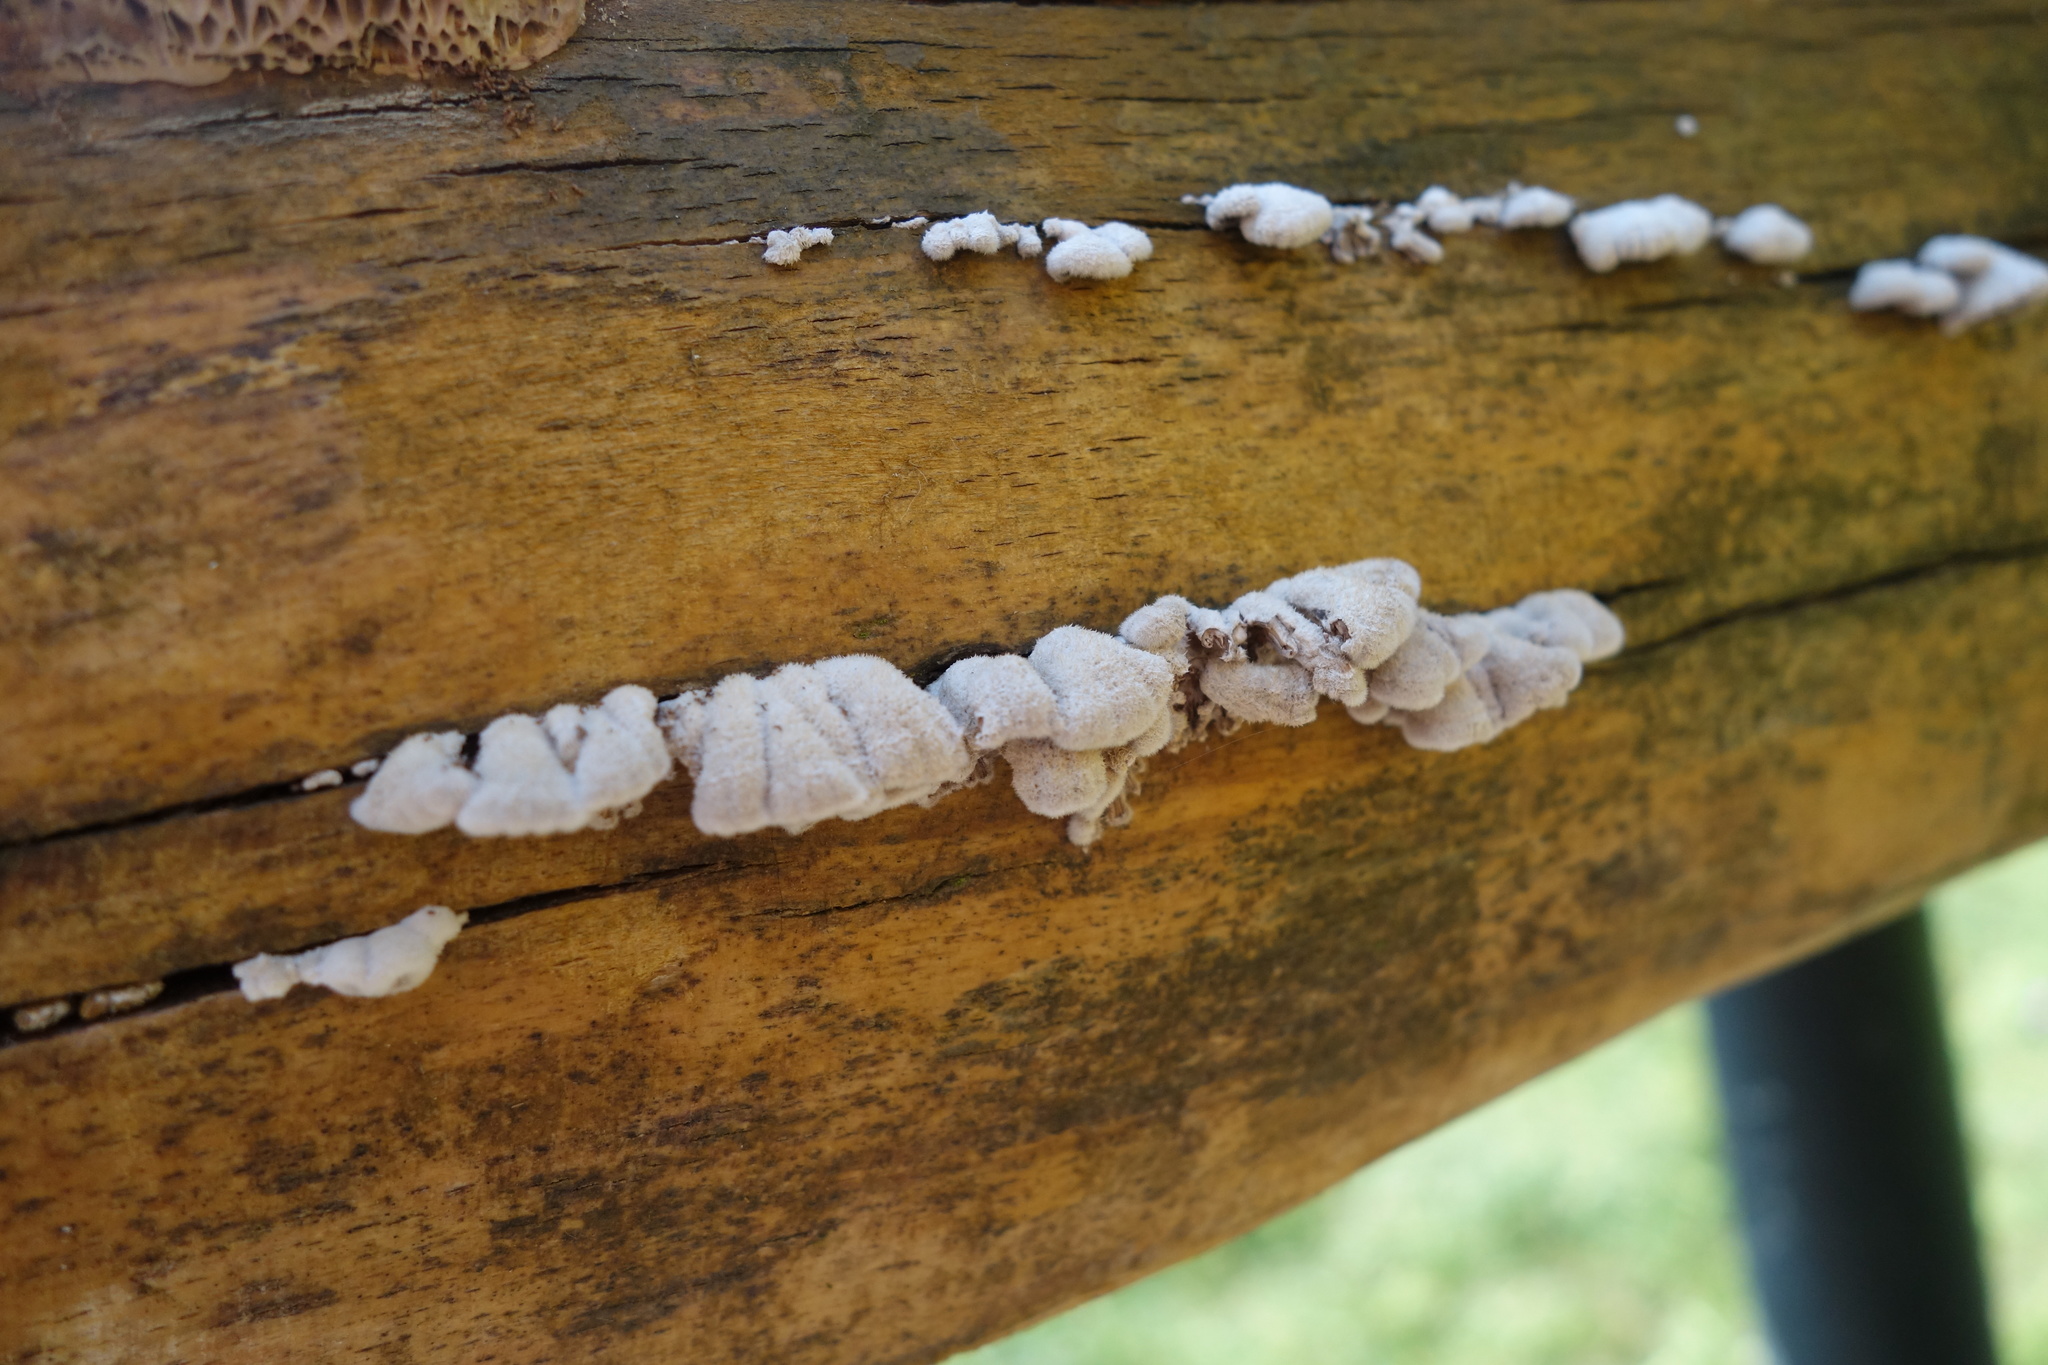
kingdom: Fungi
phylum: Basidiomycota
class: Agaricomycetes
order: Agaricales
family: Schizophyllaceae
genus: Schizophyllum
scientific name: Schizophyllum commune
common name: Common porecrust
